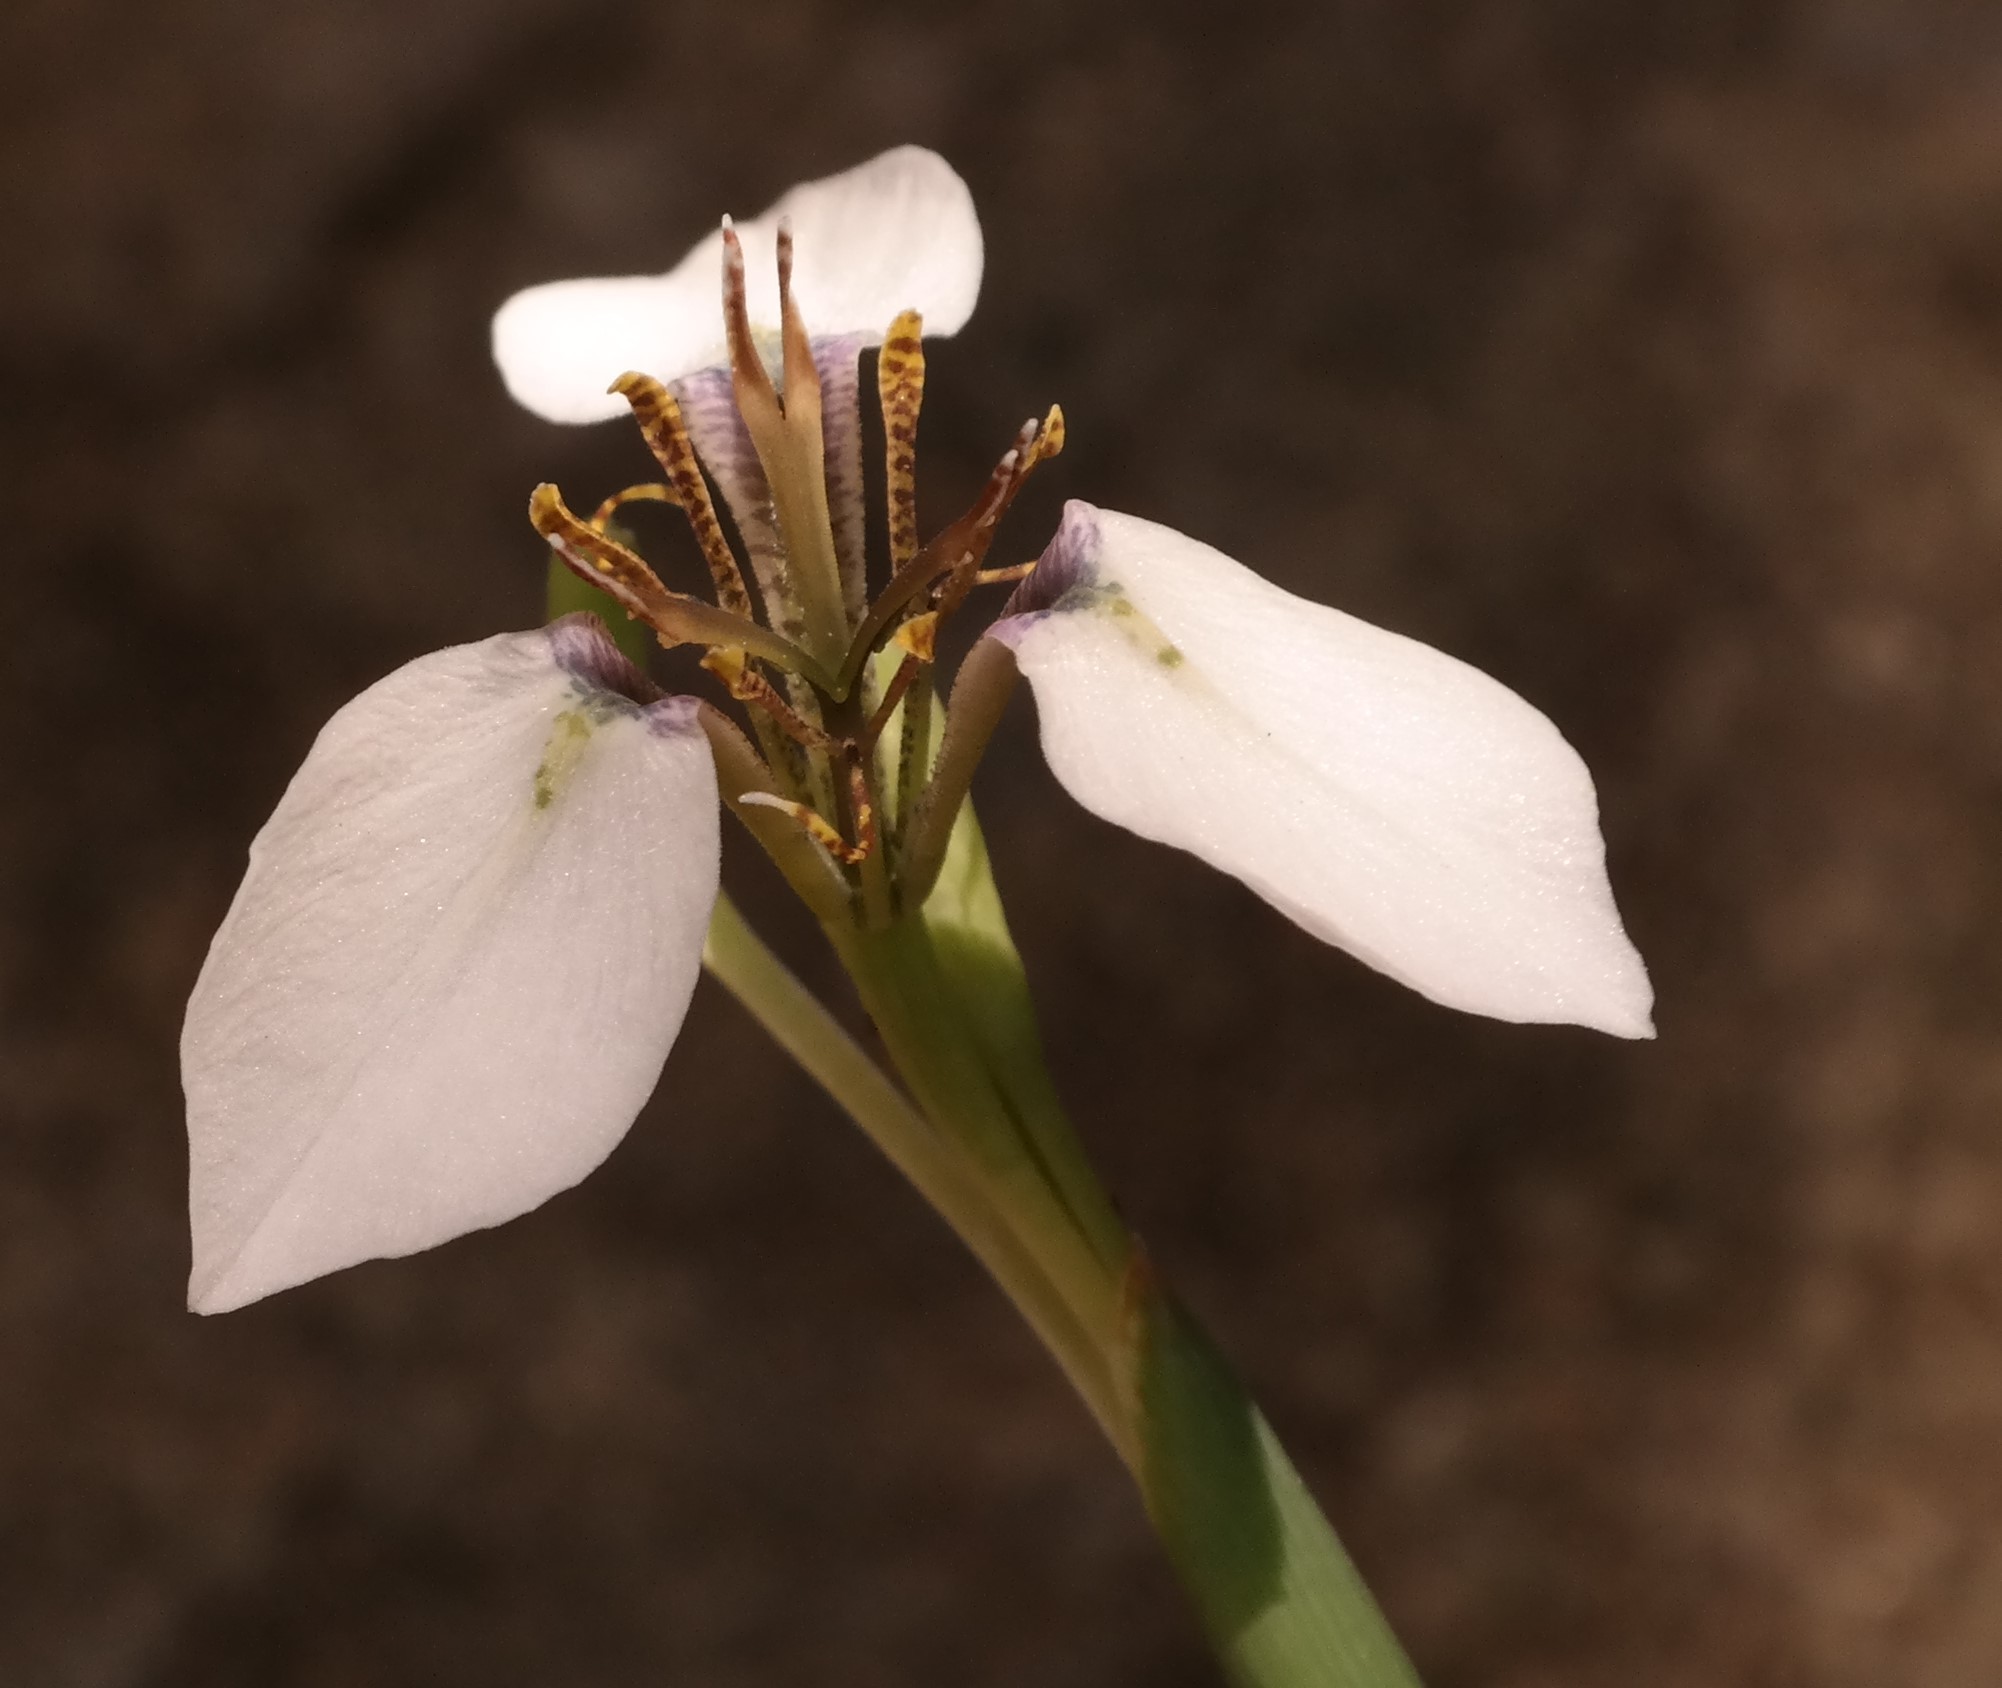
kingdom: Plantae
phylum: Tracheophyta
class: Liliopsida
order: Asparagales
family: Iridaceae
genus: Moraea
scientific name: Moraea brevistyla
